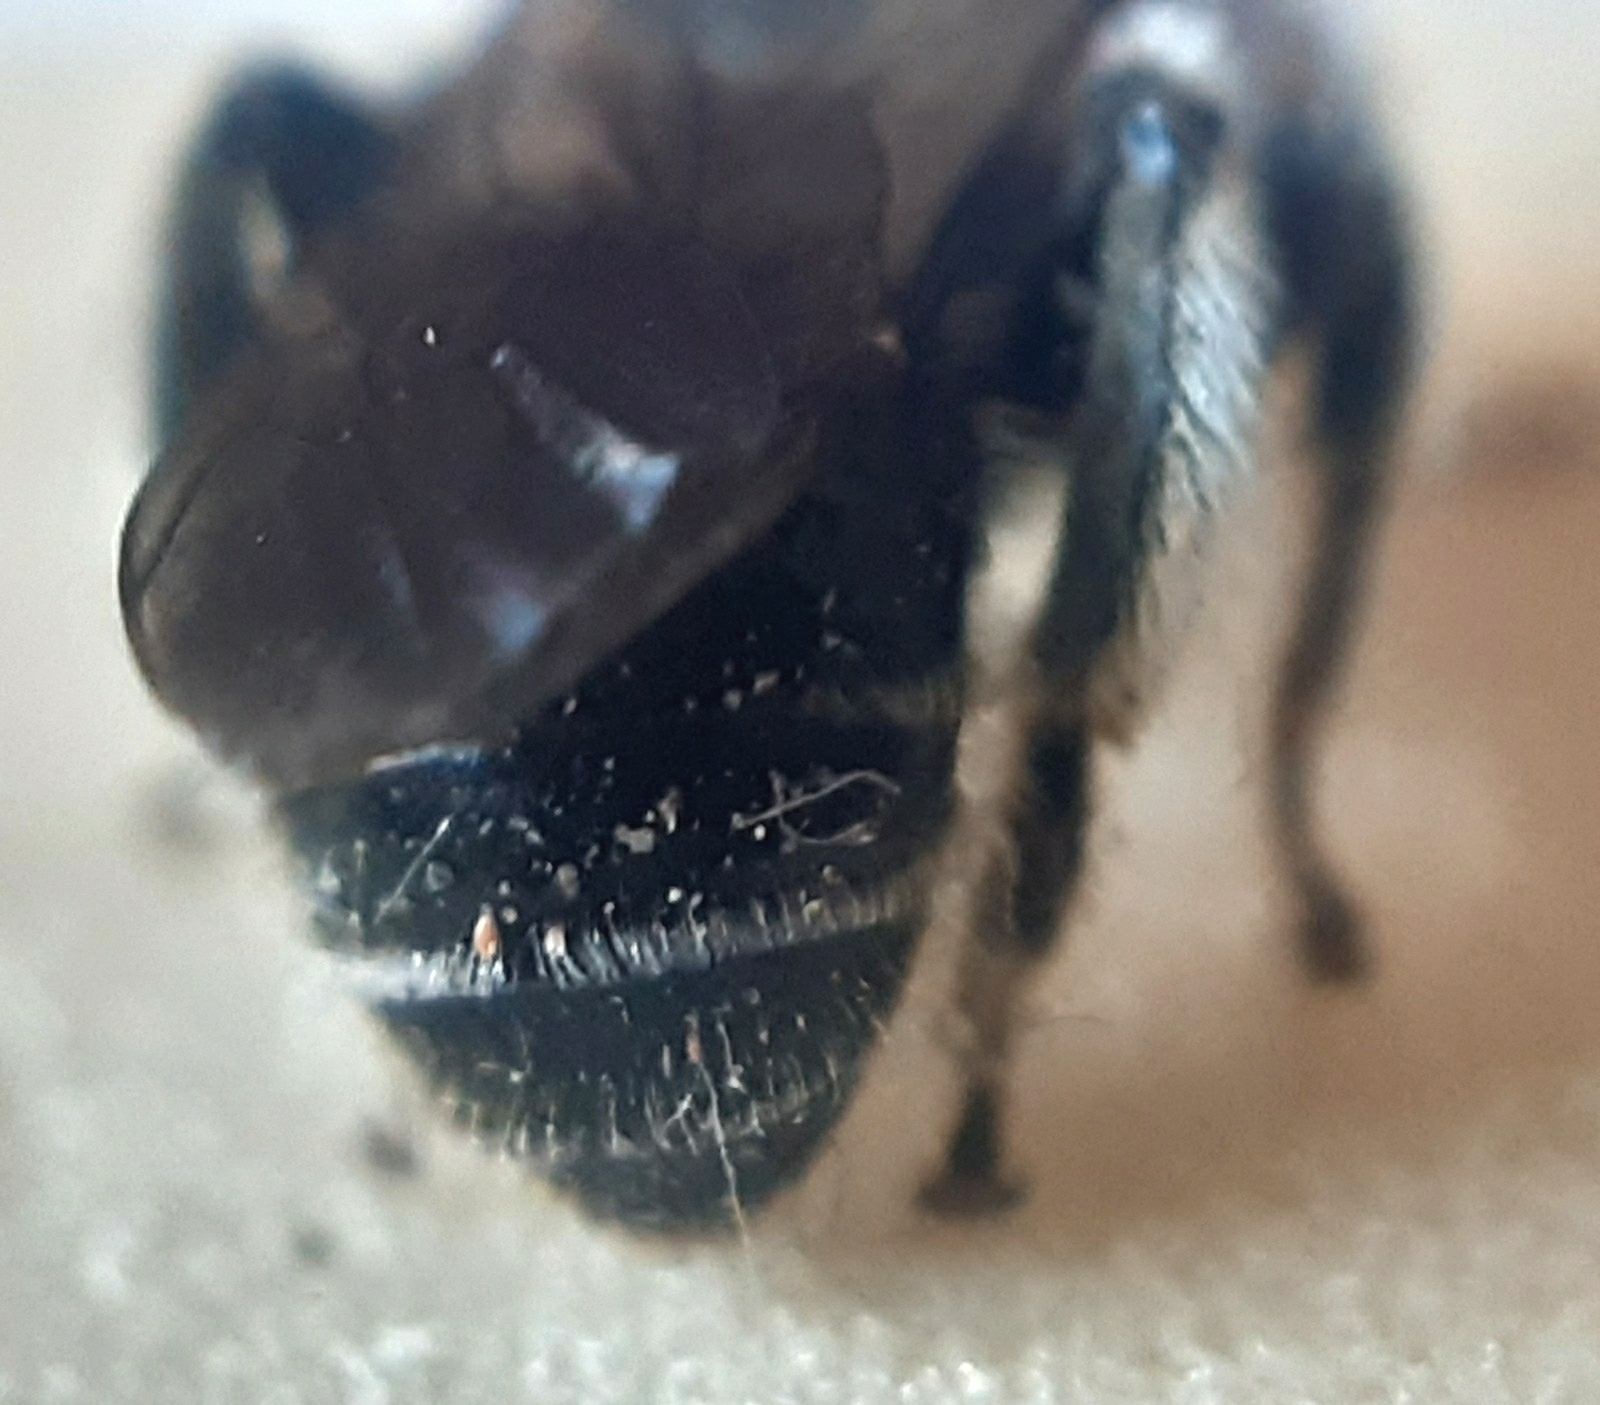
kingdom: Animalia
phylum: Arthropoda
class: Insecta
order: Hymenoptera
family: Melittidae
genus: Macropis
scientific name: Macropis fulvipes
